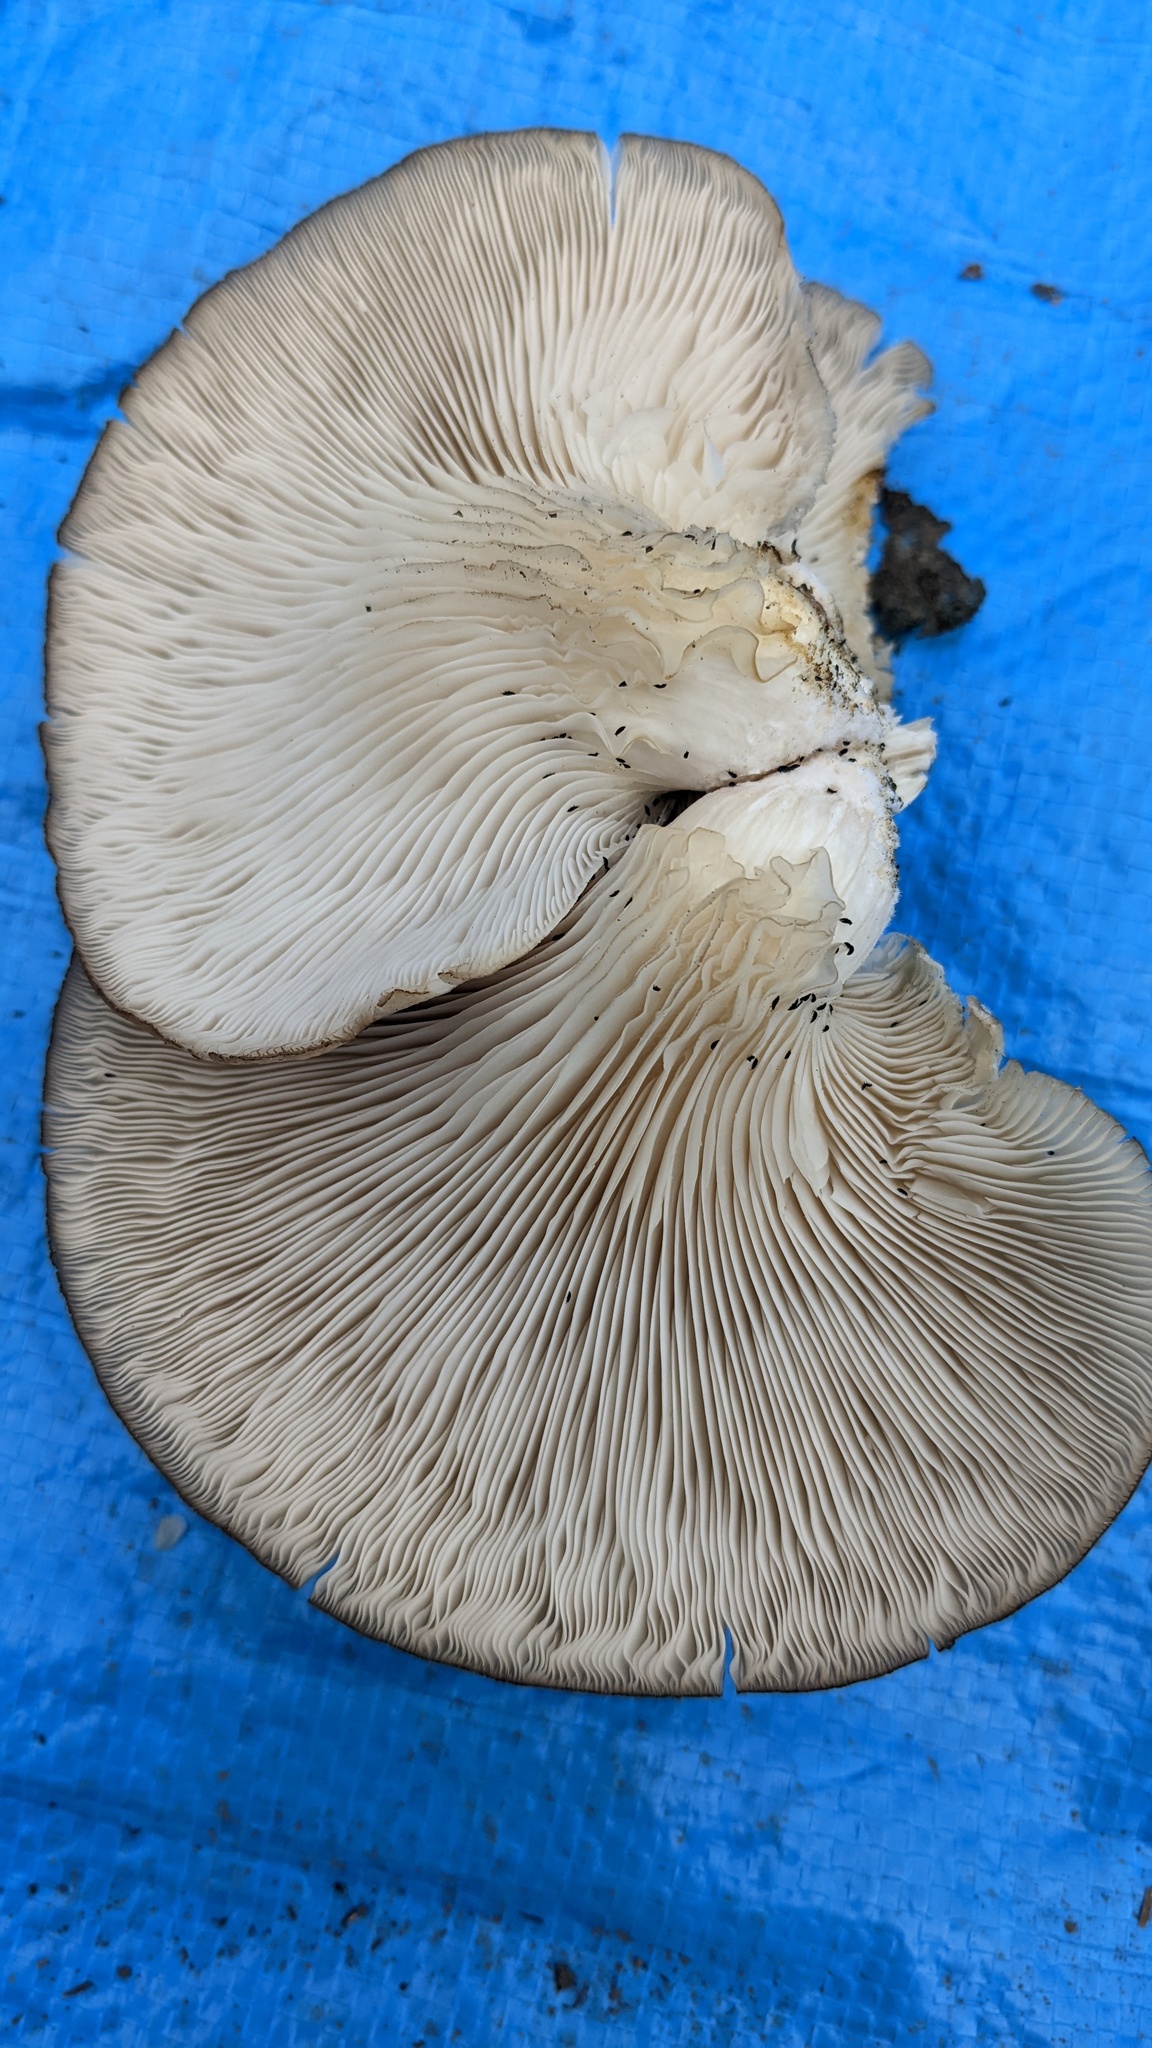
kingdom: Fungi
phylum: Basidiomycota
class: Agaricomycetes
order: Agaricales
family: Pleurotaceae
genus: Pleurotus
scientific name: Pleurotus ostreatus
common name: Oyster mushroom
